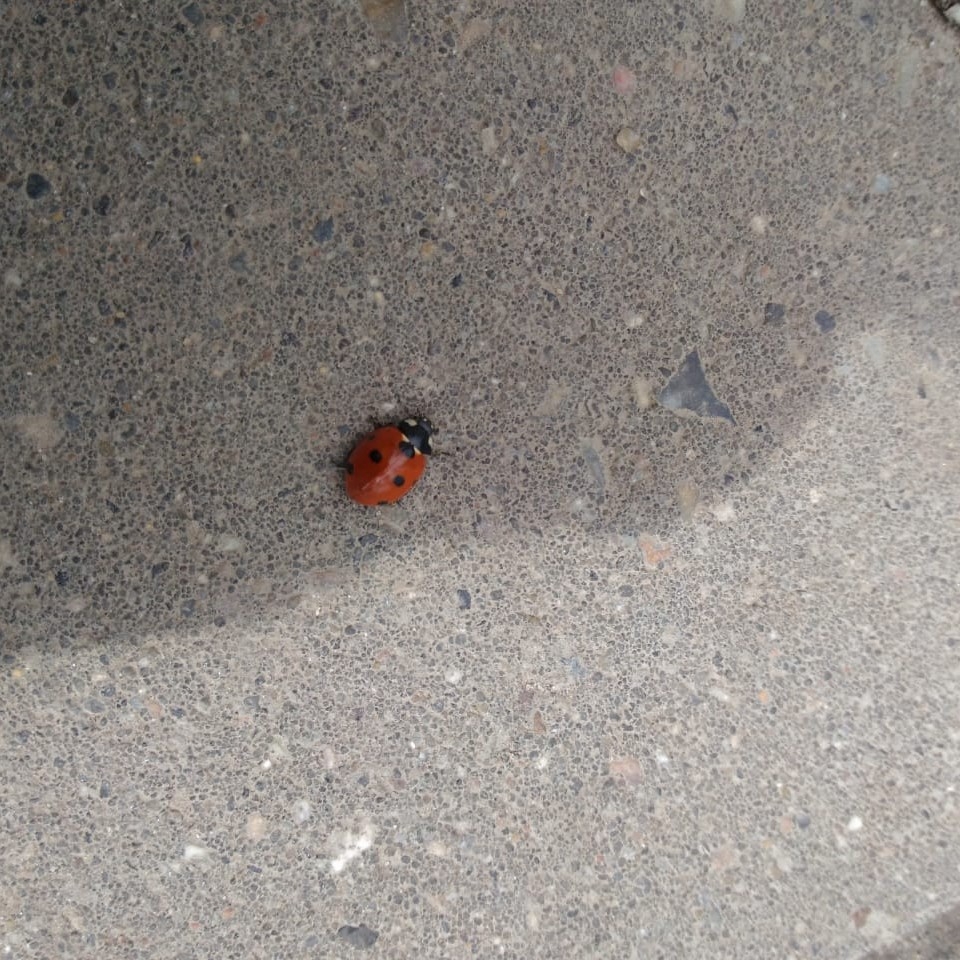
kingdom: Animalia
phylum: Arthropoda
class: Insecta
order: Coleoptera
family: Coccinellidae
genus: Coccinella
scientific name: Coccinella septempunctata
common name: Sevenspotted lady beetle
